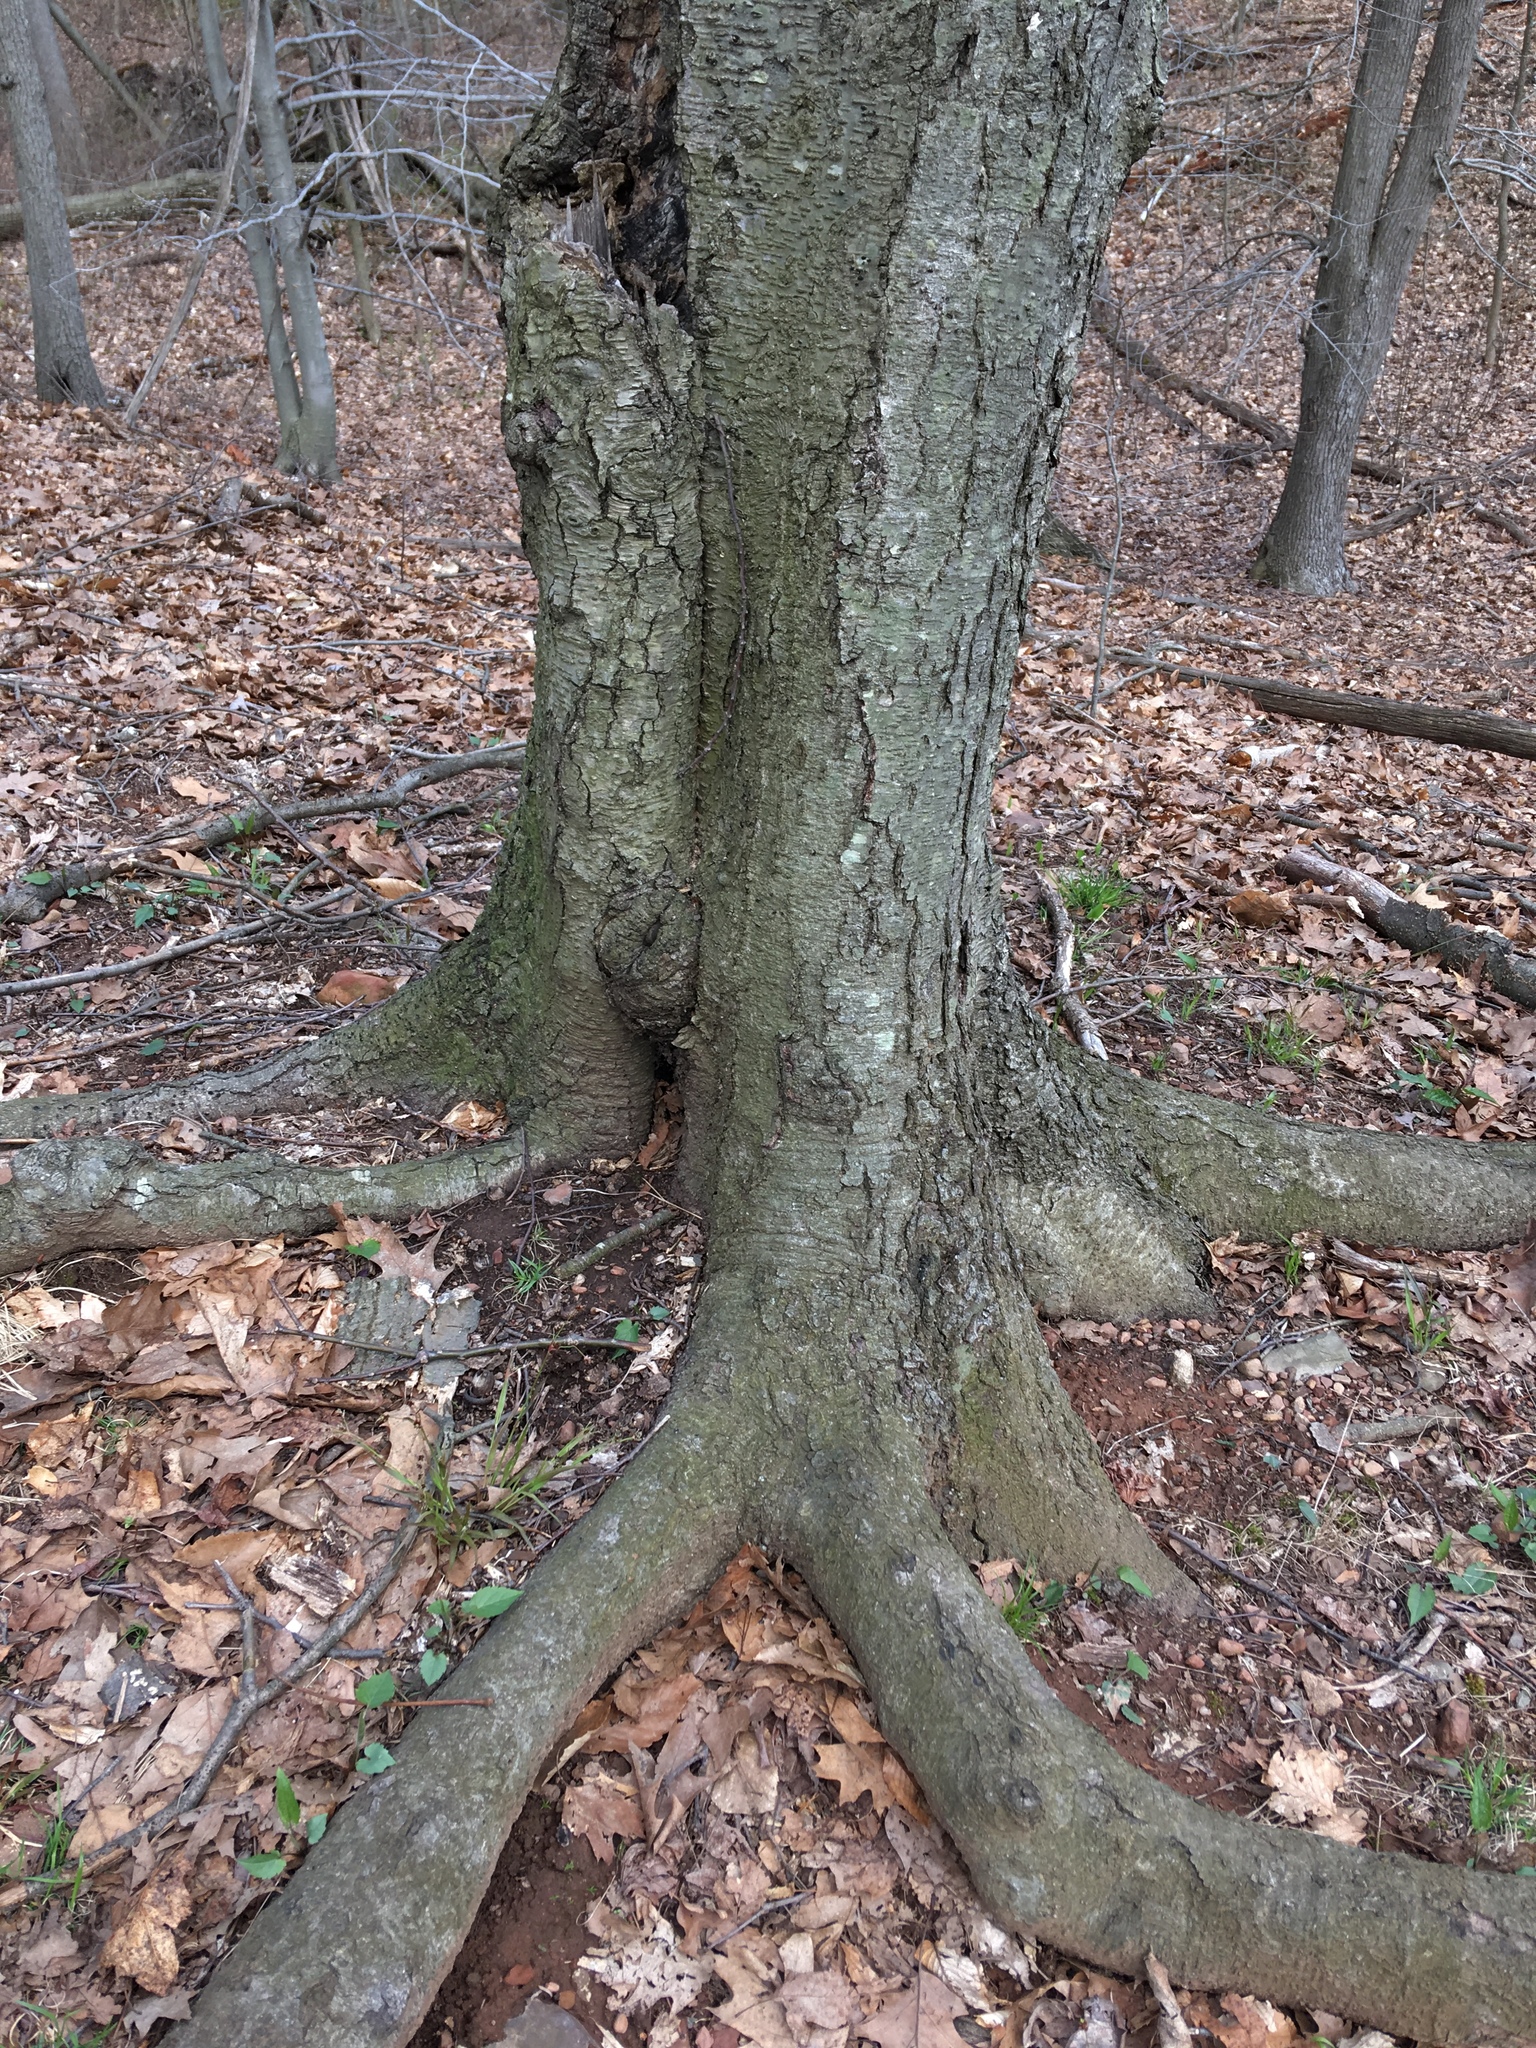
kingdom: Plantae
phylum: Tracheophyta
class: Magnoliopsida
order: Fagales
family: Betulaceae
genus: Betula
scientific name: Betula lenta
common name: Black birch
